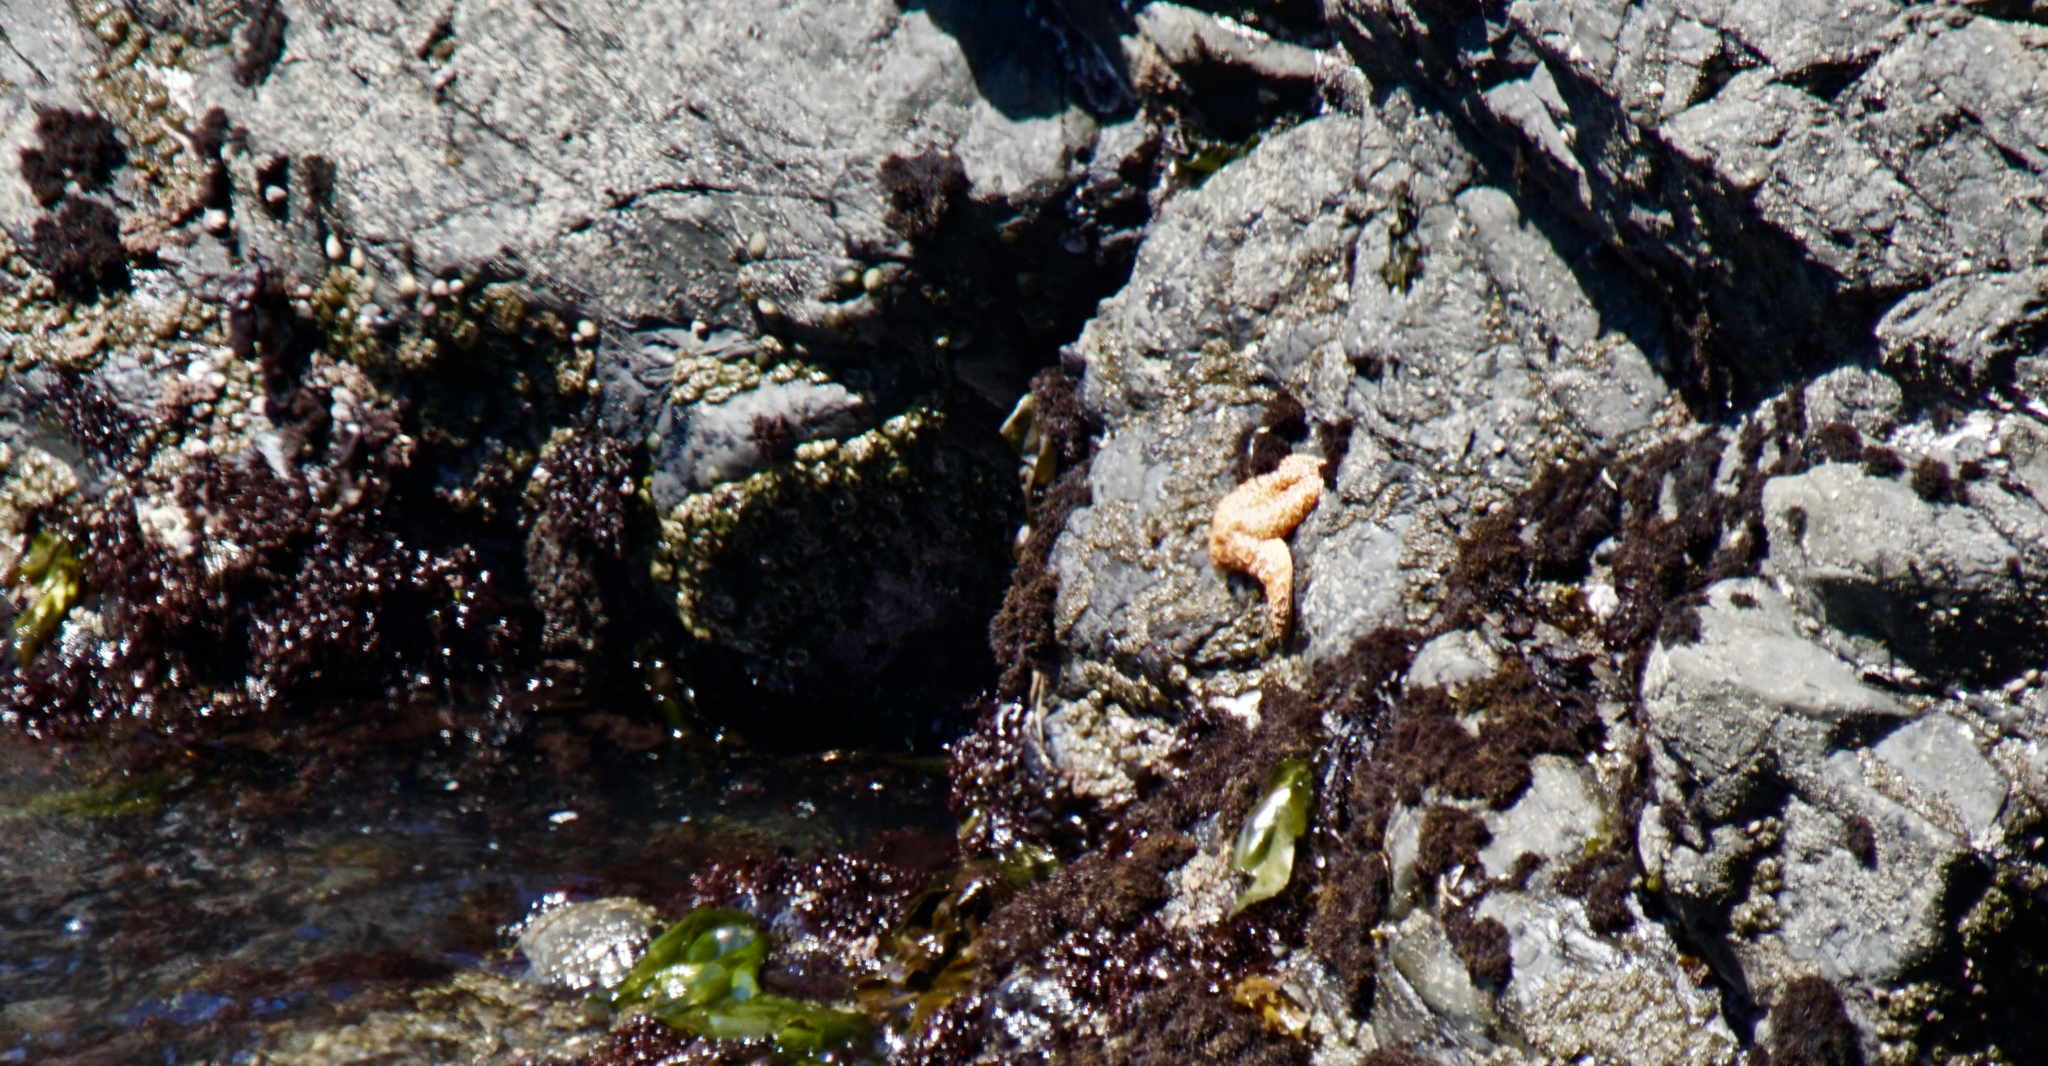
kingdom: Animalia
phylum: Echinodermata
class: Asteroidea
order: Forcipulatida
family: Asteriidae
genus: Pisaster
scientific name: Pisaster ochraceus
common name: Ochre stars
